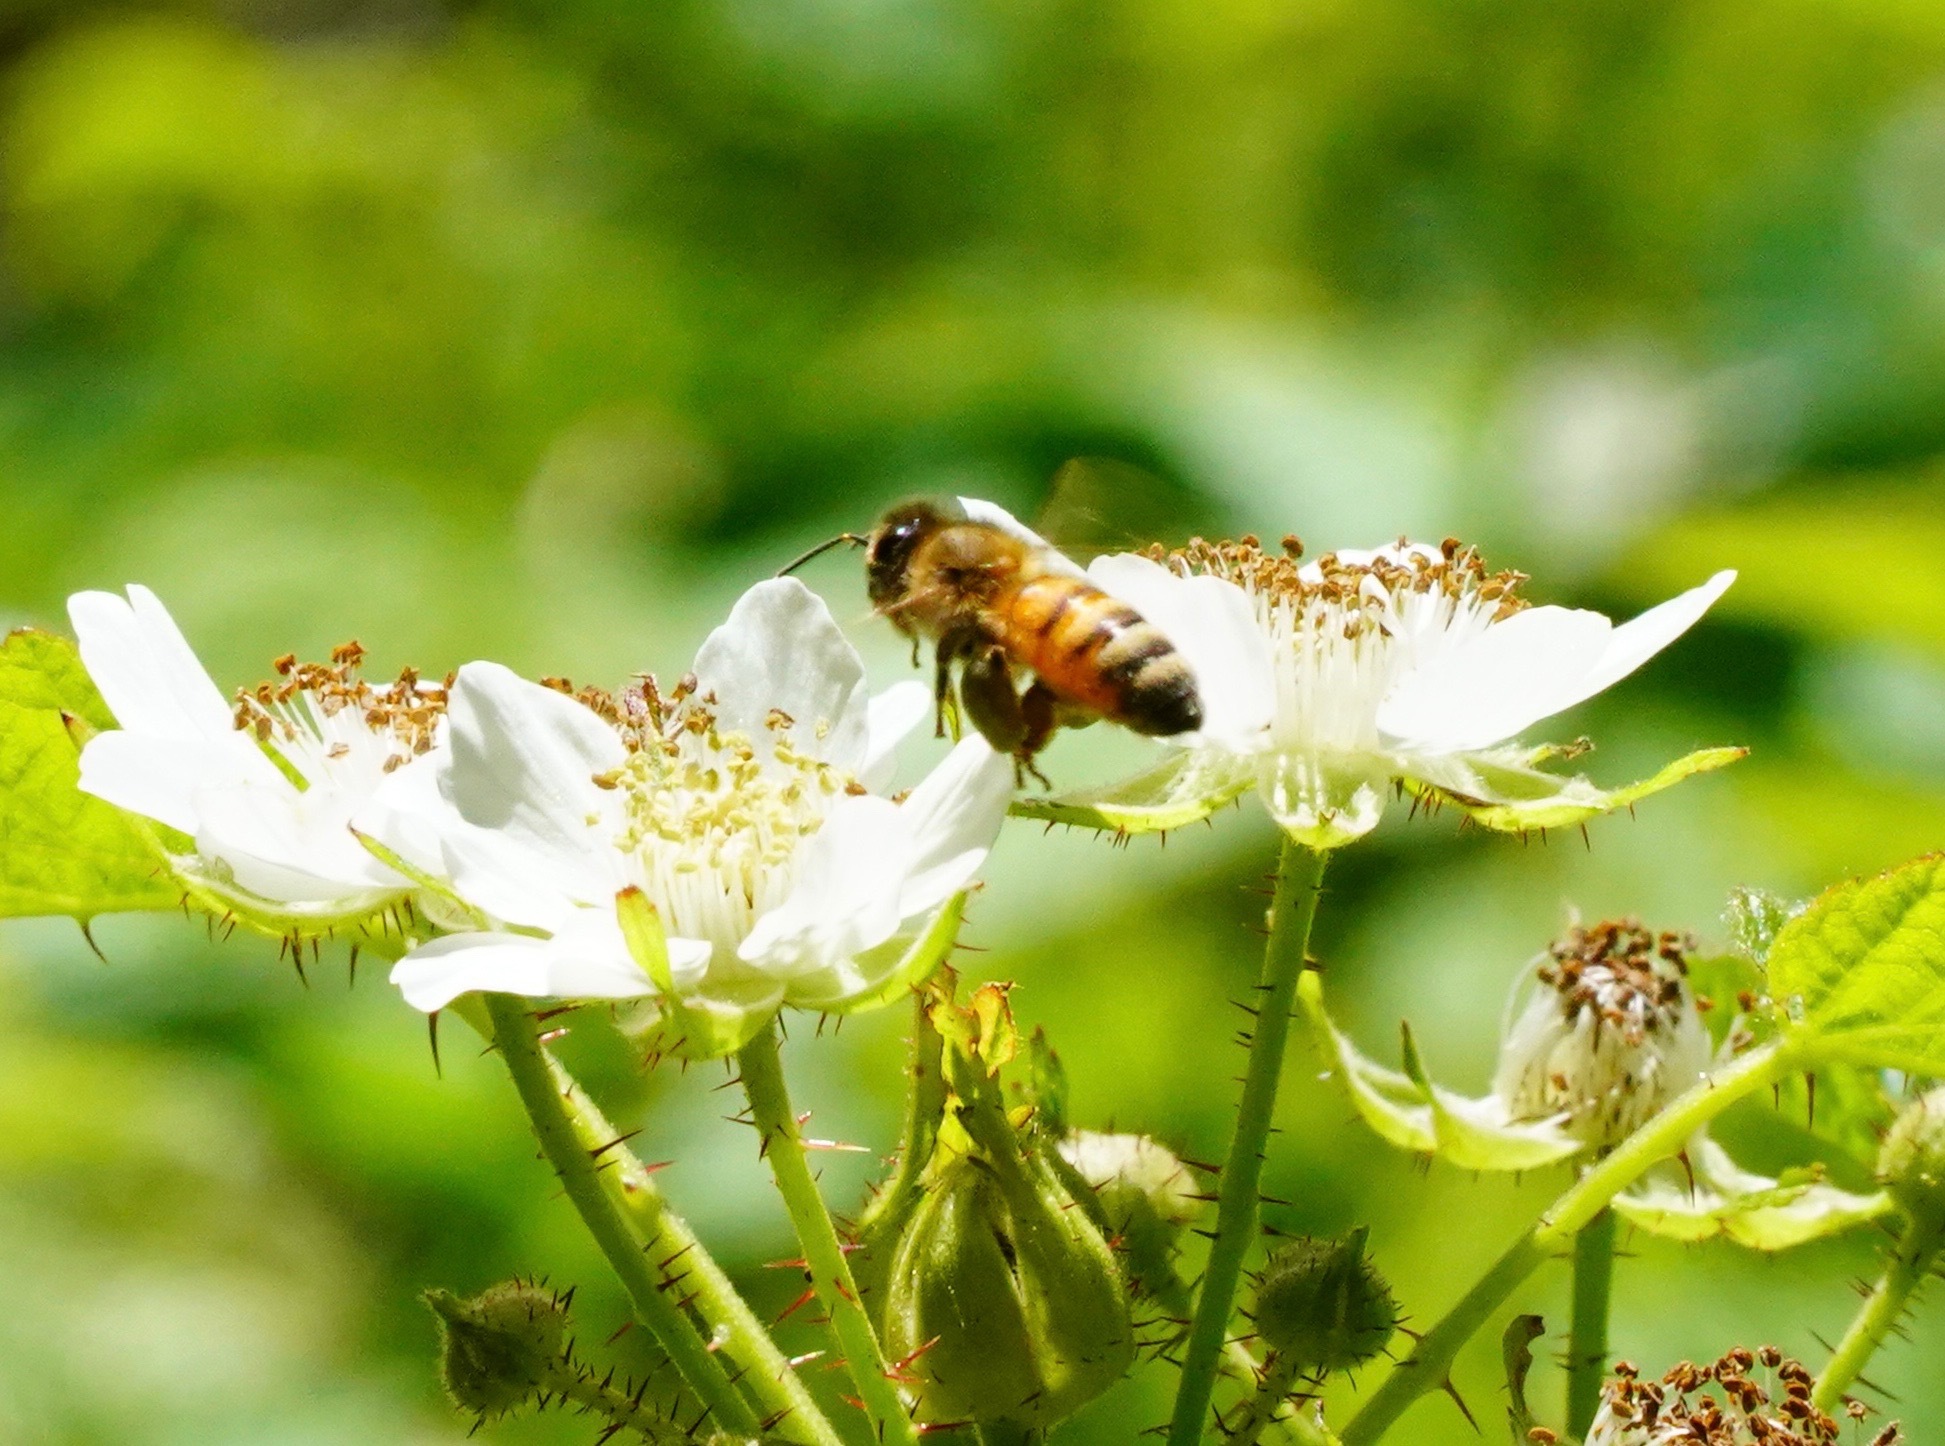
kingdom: Animalia
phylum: Arthropoda
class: Insecta
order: Hymenoptera
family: Apidae
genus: Apis
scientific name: Apis mellifera
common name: Honey bee
